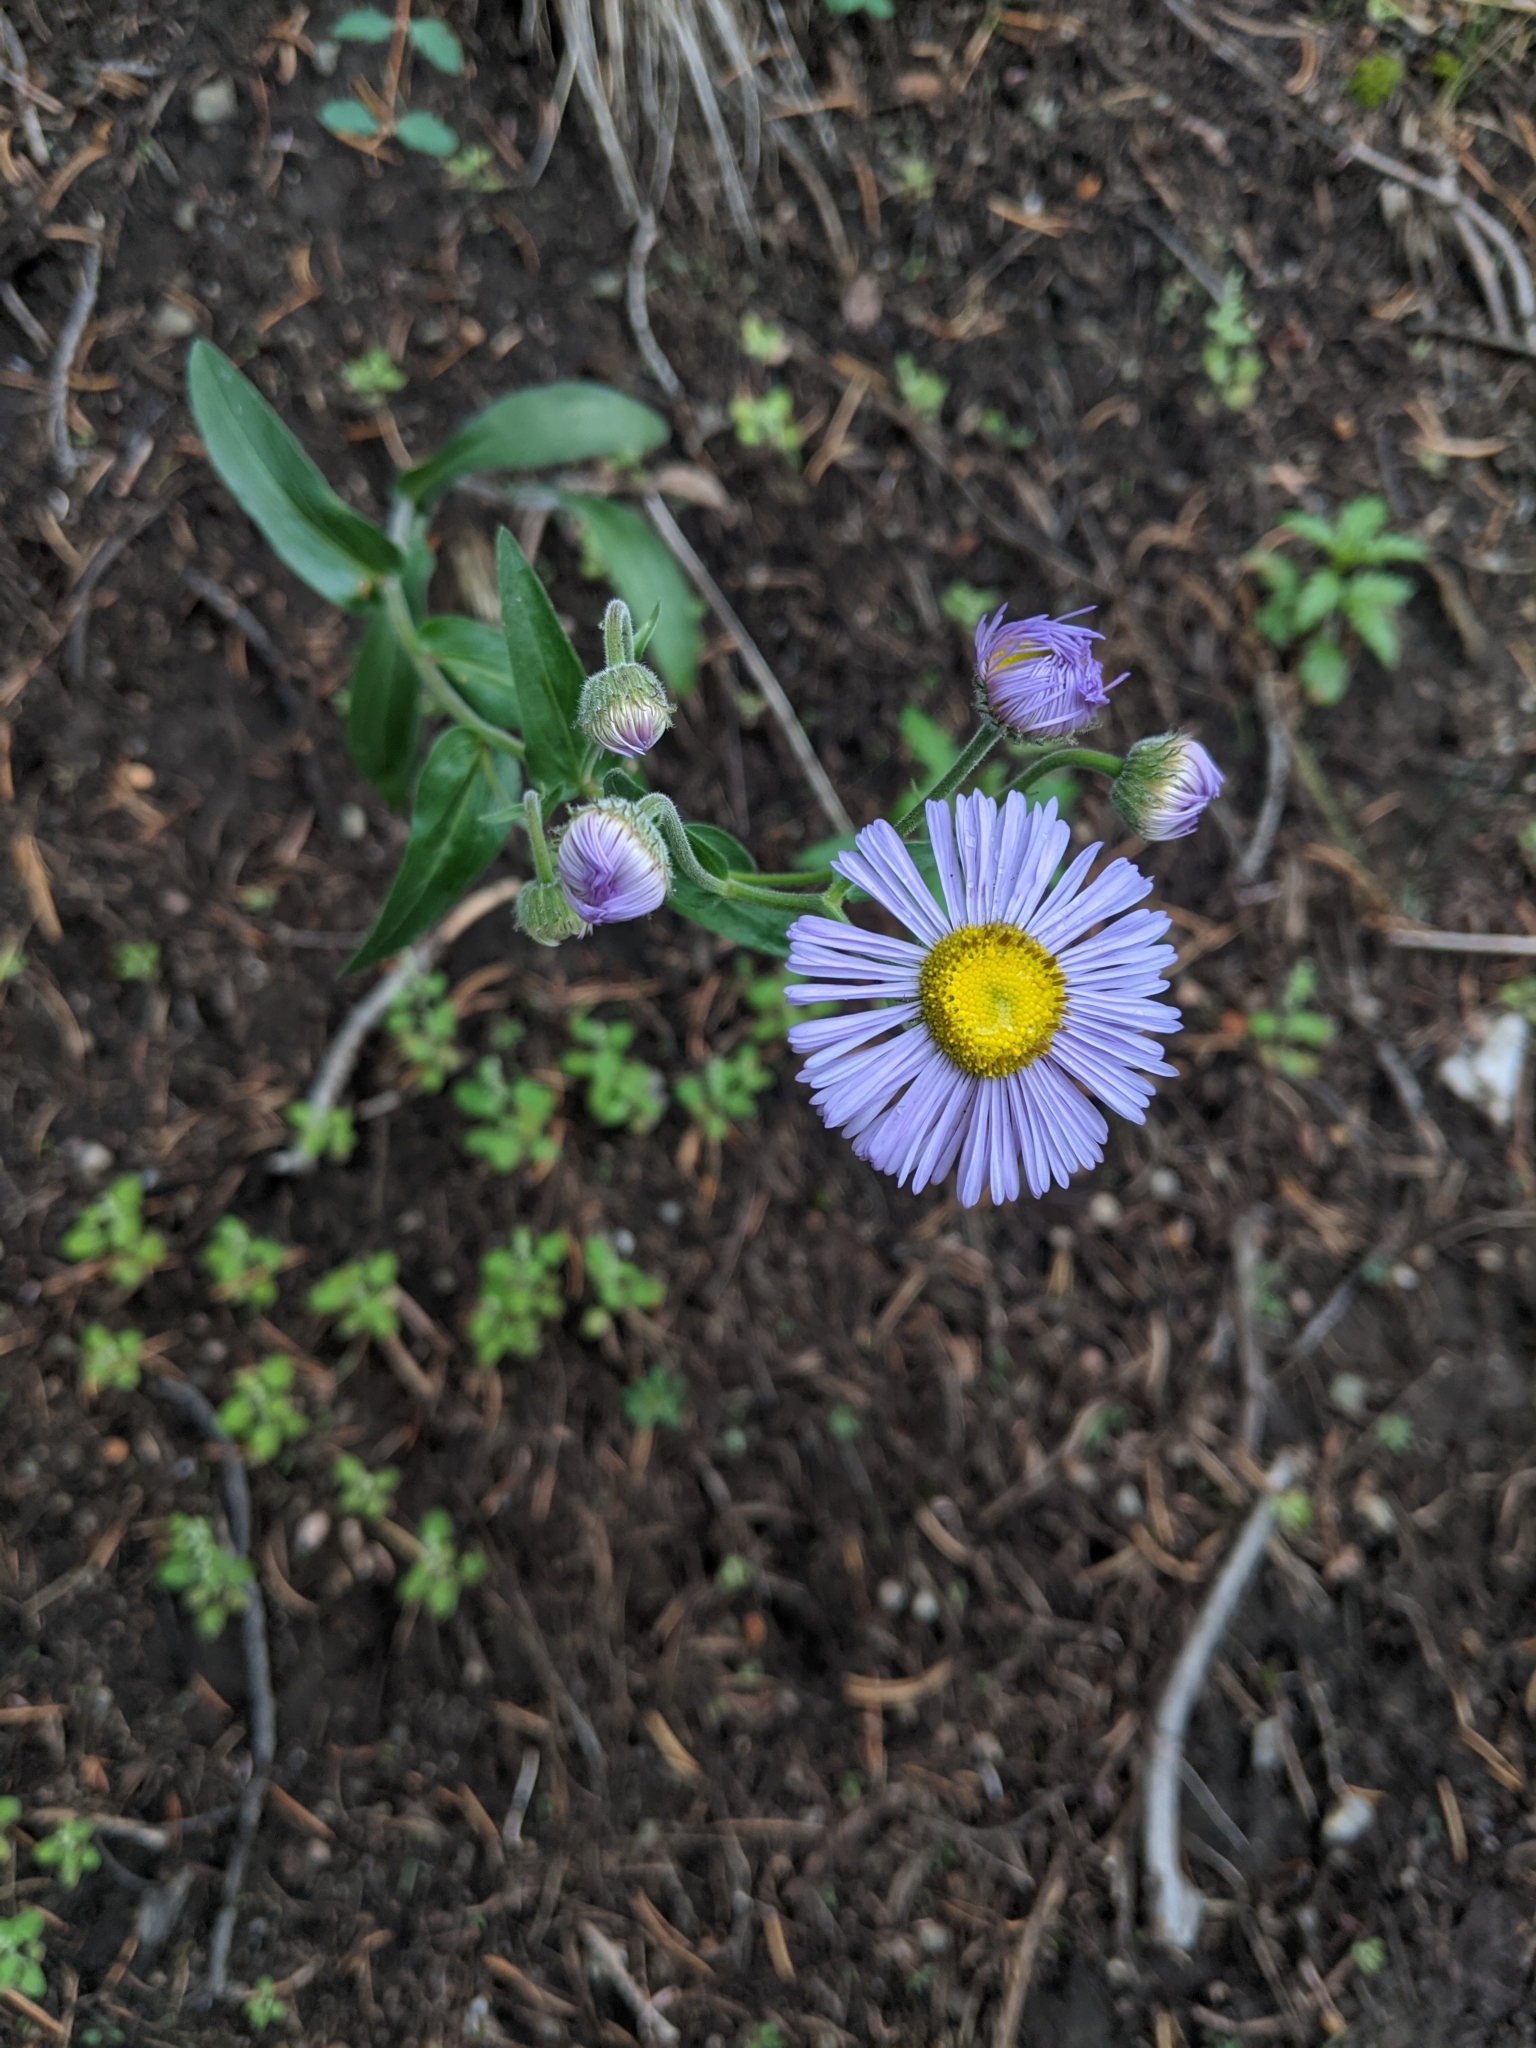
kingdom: Plantae
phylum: Tracheophyta
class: Magnoliopsida
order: Asterales
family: Asteraceae
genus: Erigeron
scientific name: Erigeron speciosus
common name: Aspen fleabane
